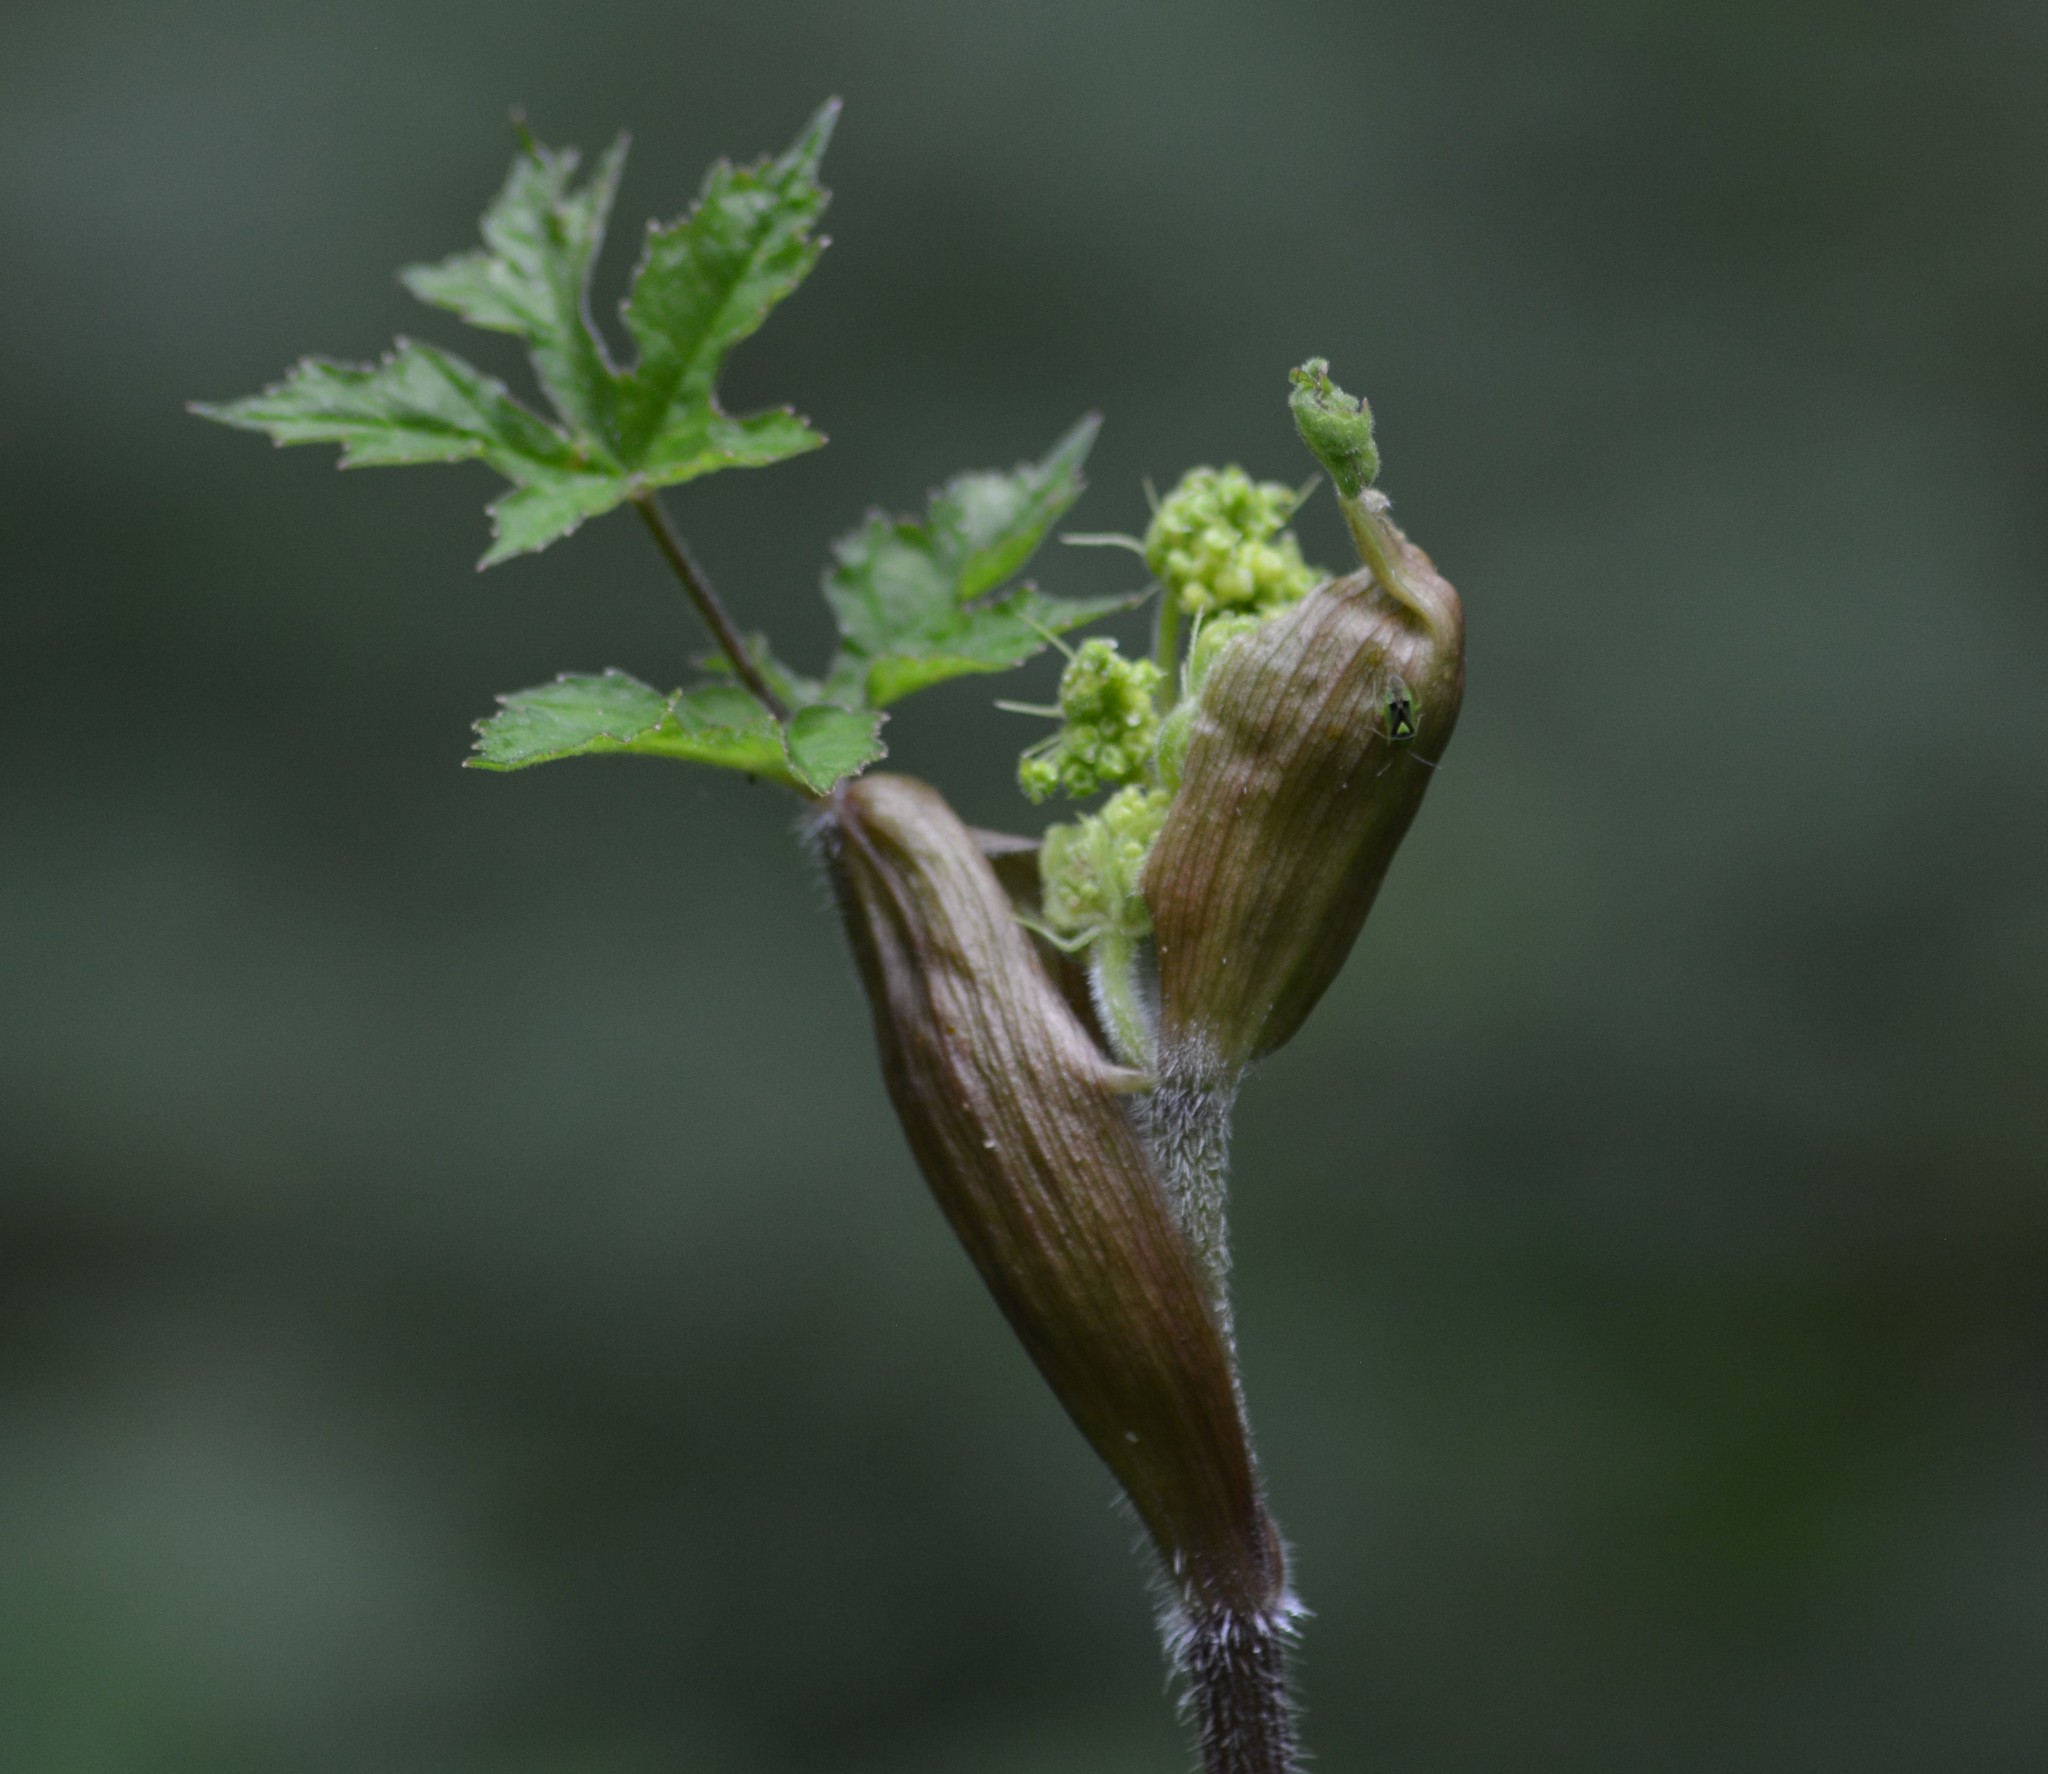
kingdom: Plantae
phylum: Tracheophyta
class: Magnoliopsida
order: Apiales
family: Apiaceae
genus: Heracleum
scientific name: Heracleum sphondylium
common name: Hogweed
